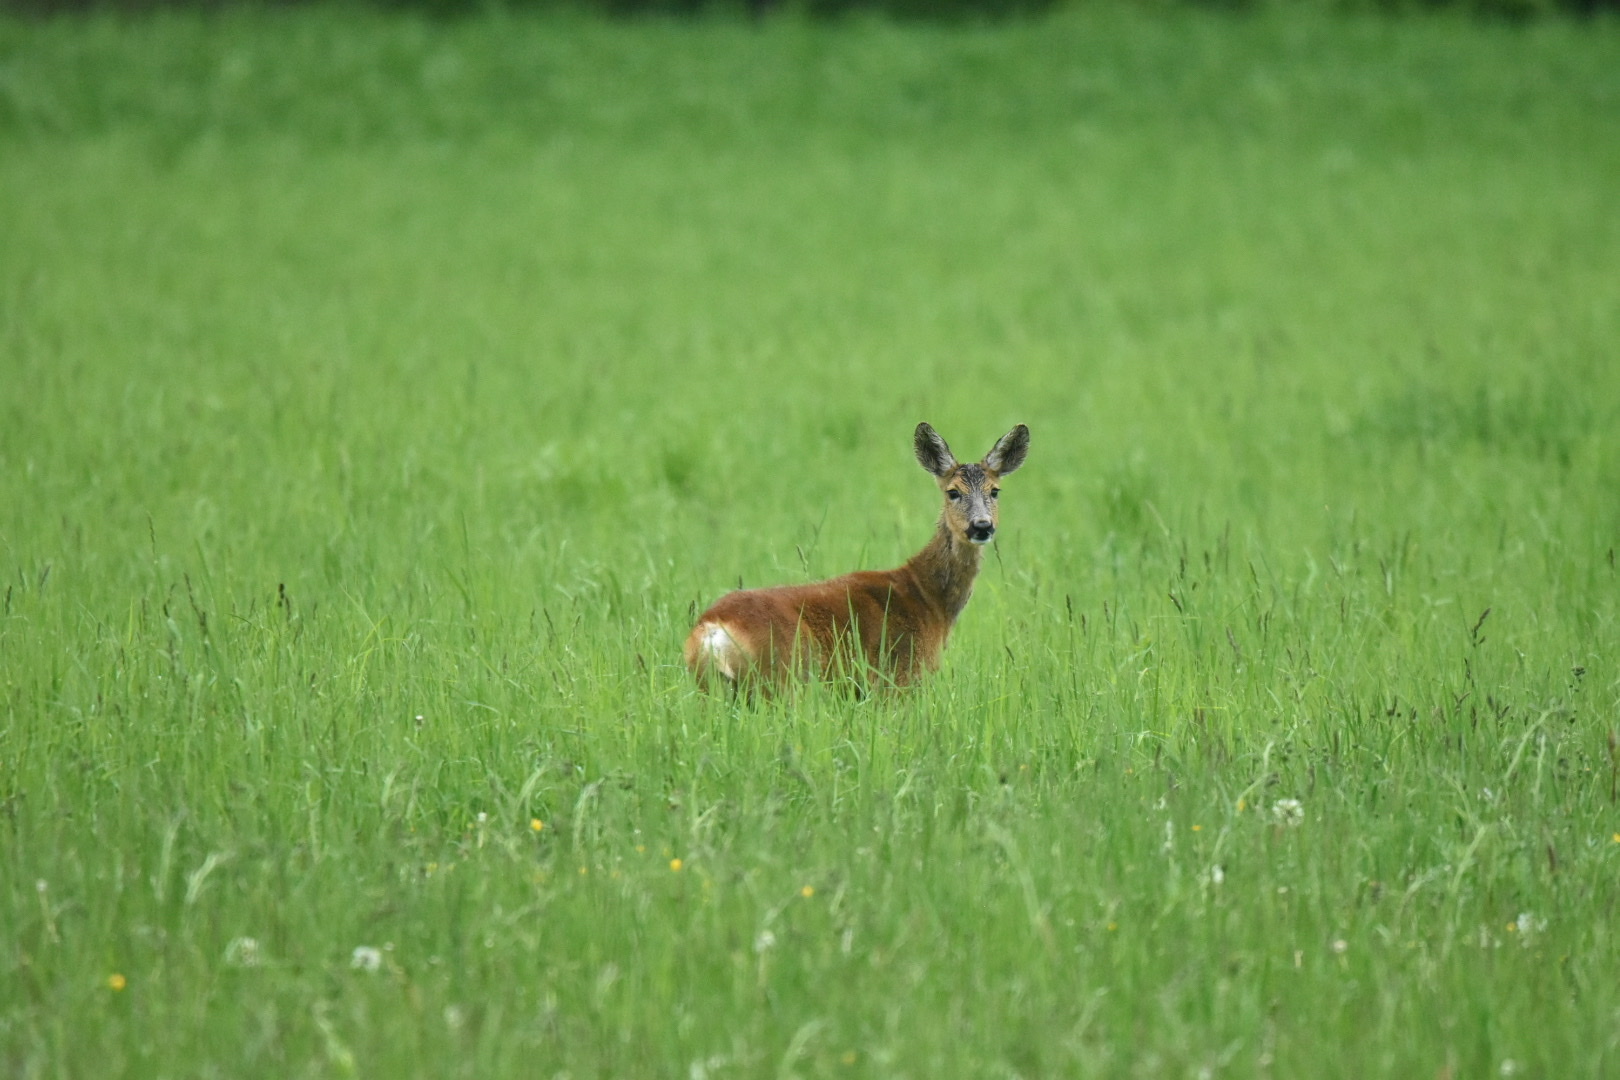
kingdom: Animalia
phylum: Chordata
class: Mammalia
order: Artiodactyla
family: Cervidae
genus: Capreolus
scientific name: Capreolus capreolus
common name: Western roe deer
